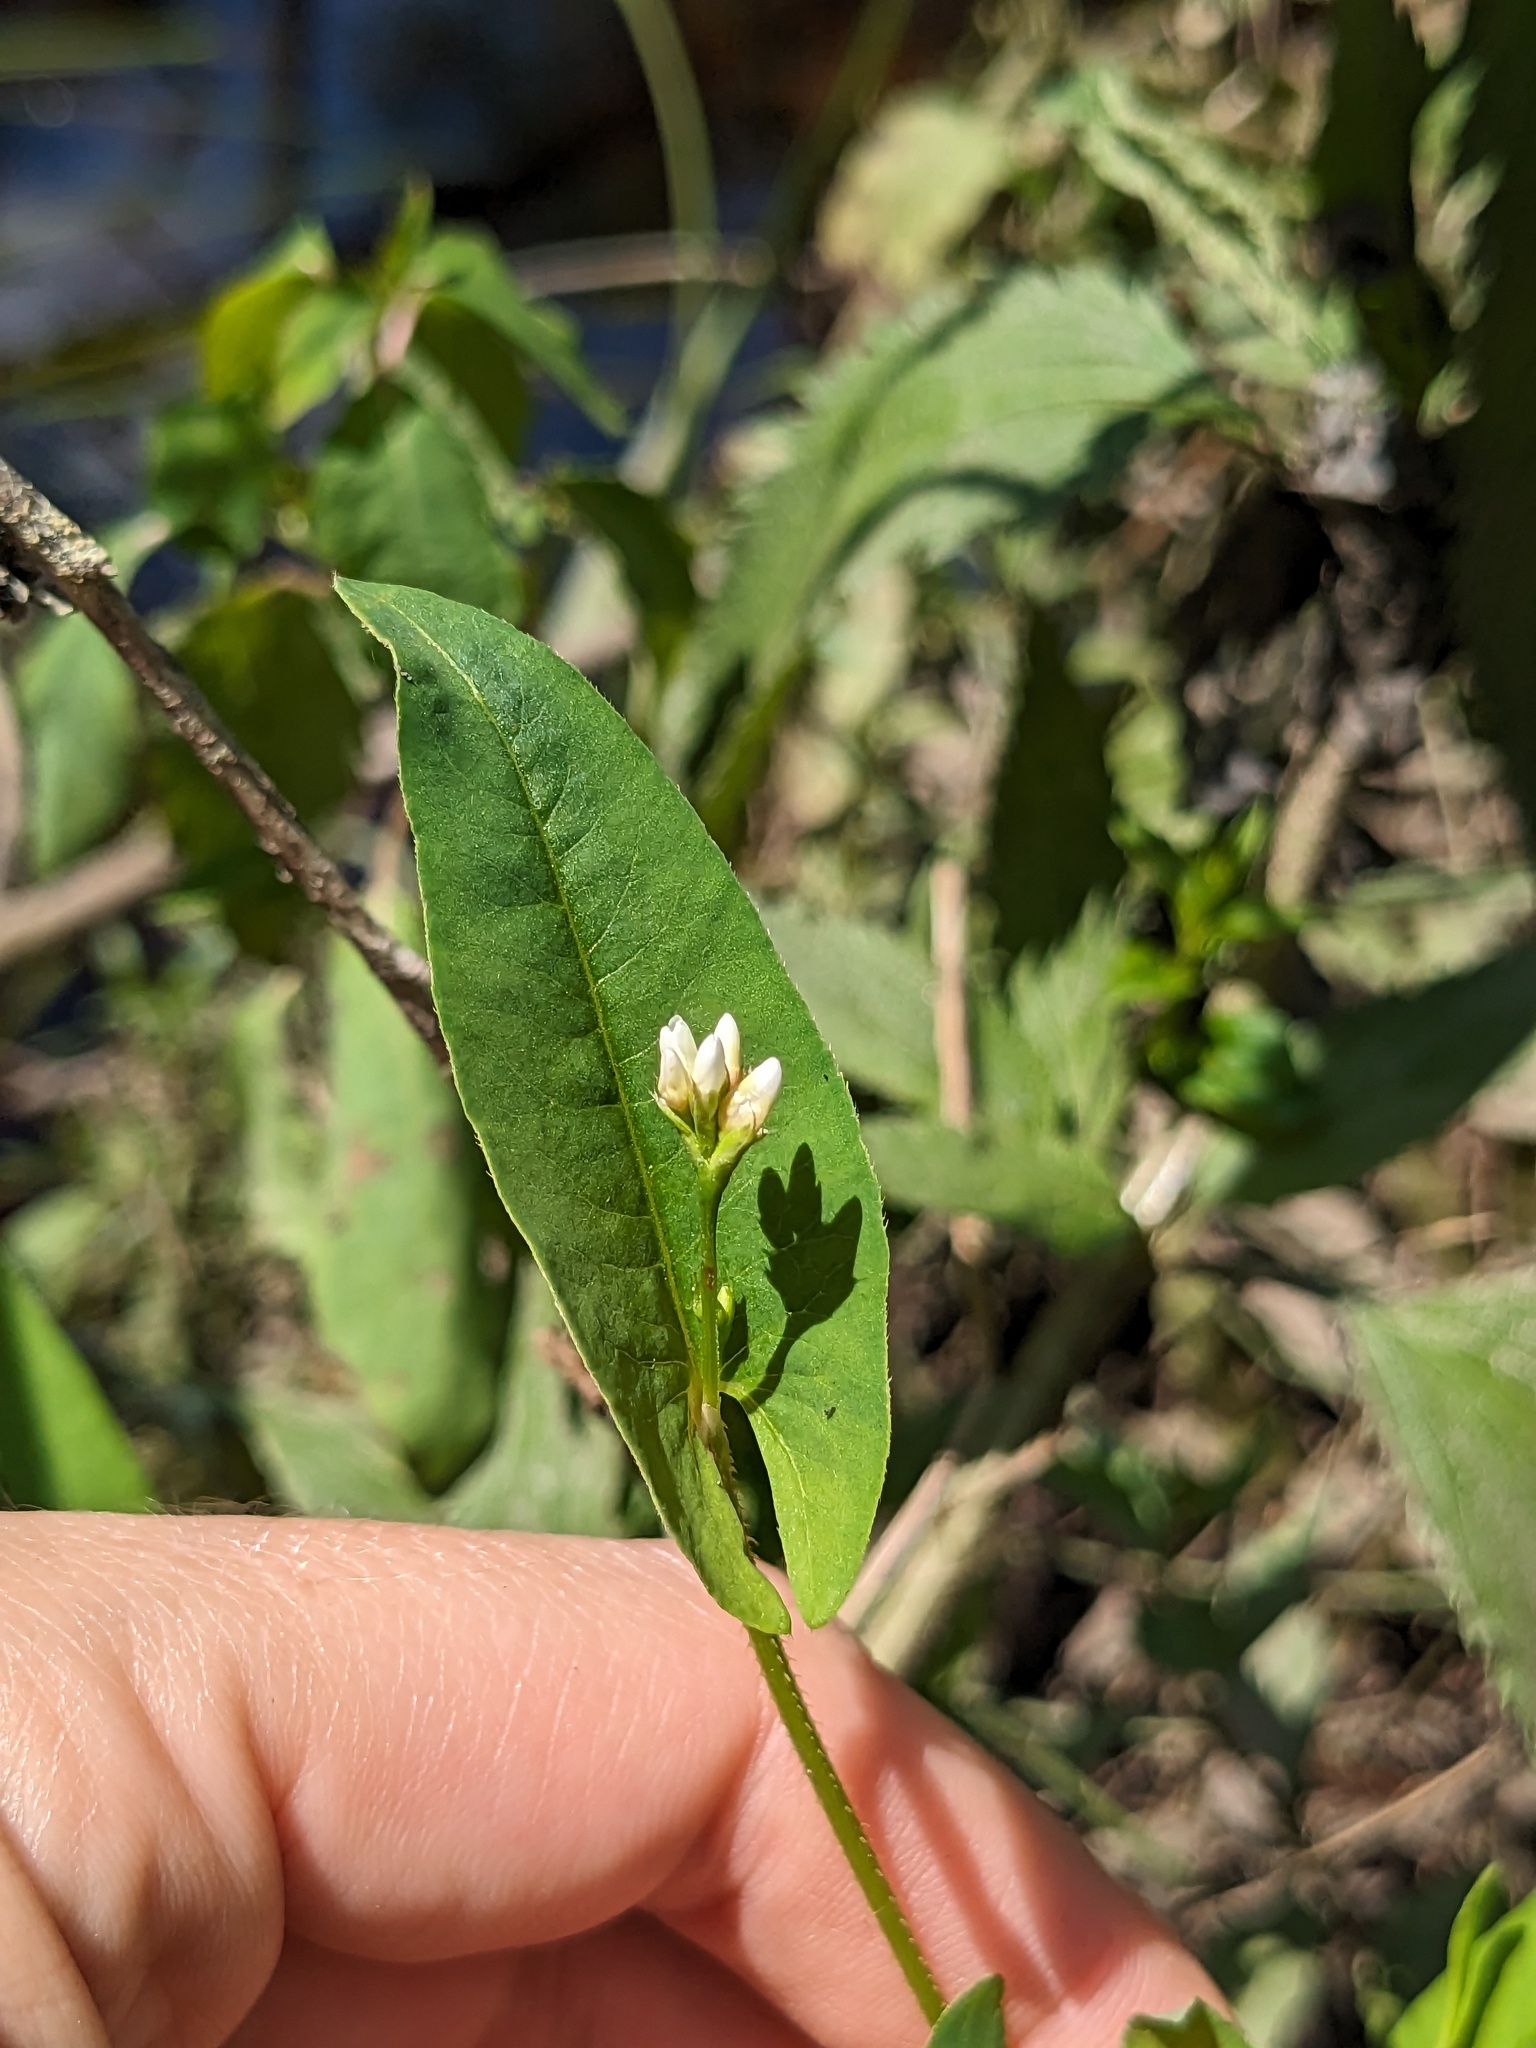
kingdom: Plantae
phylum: Tracheophyta
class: Magnoliopsida
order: Caryophyllales
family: Polygonaceae
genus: Persicaria
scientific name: Persicaria sagittata
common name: American tearthumb
